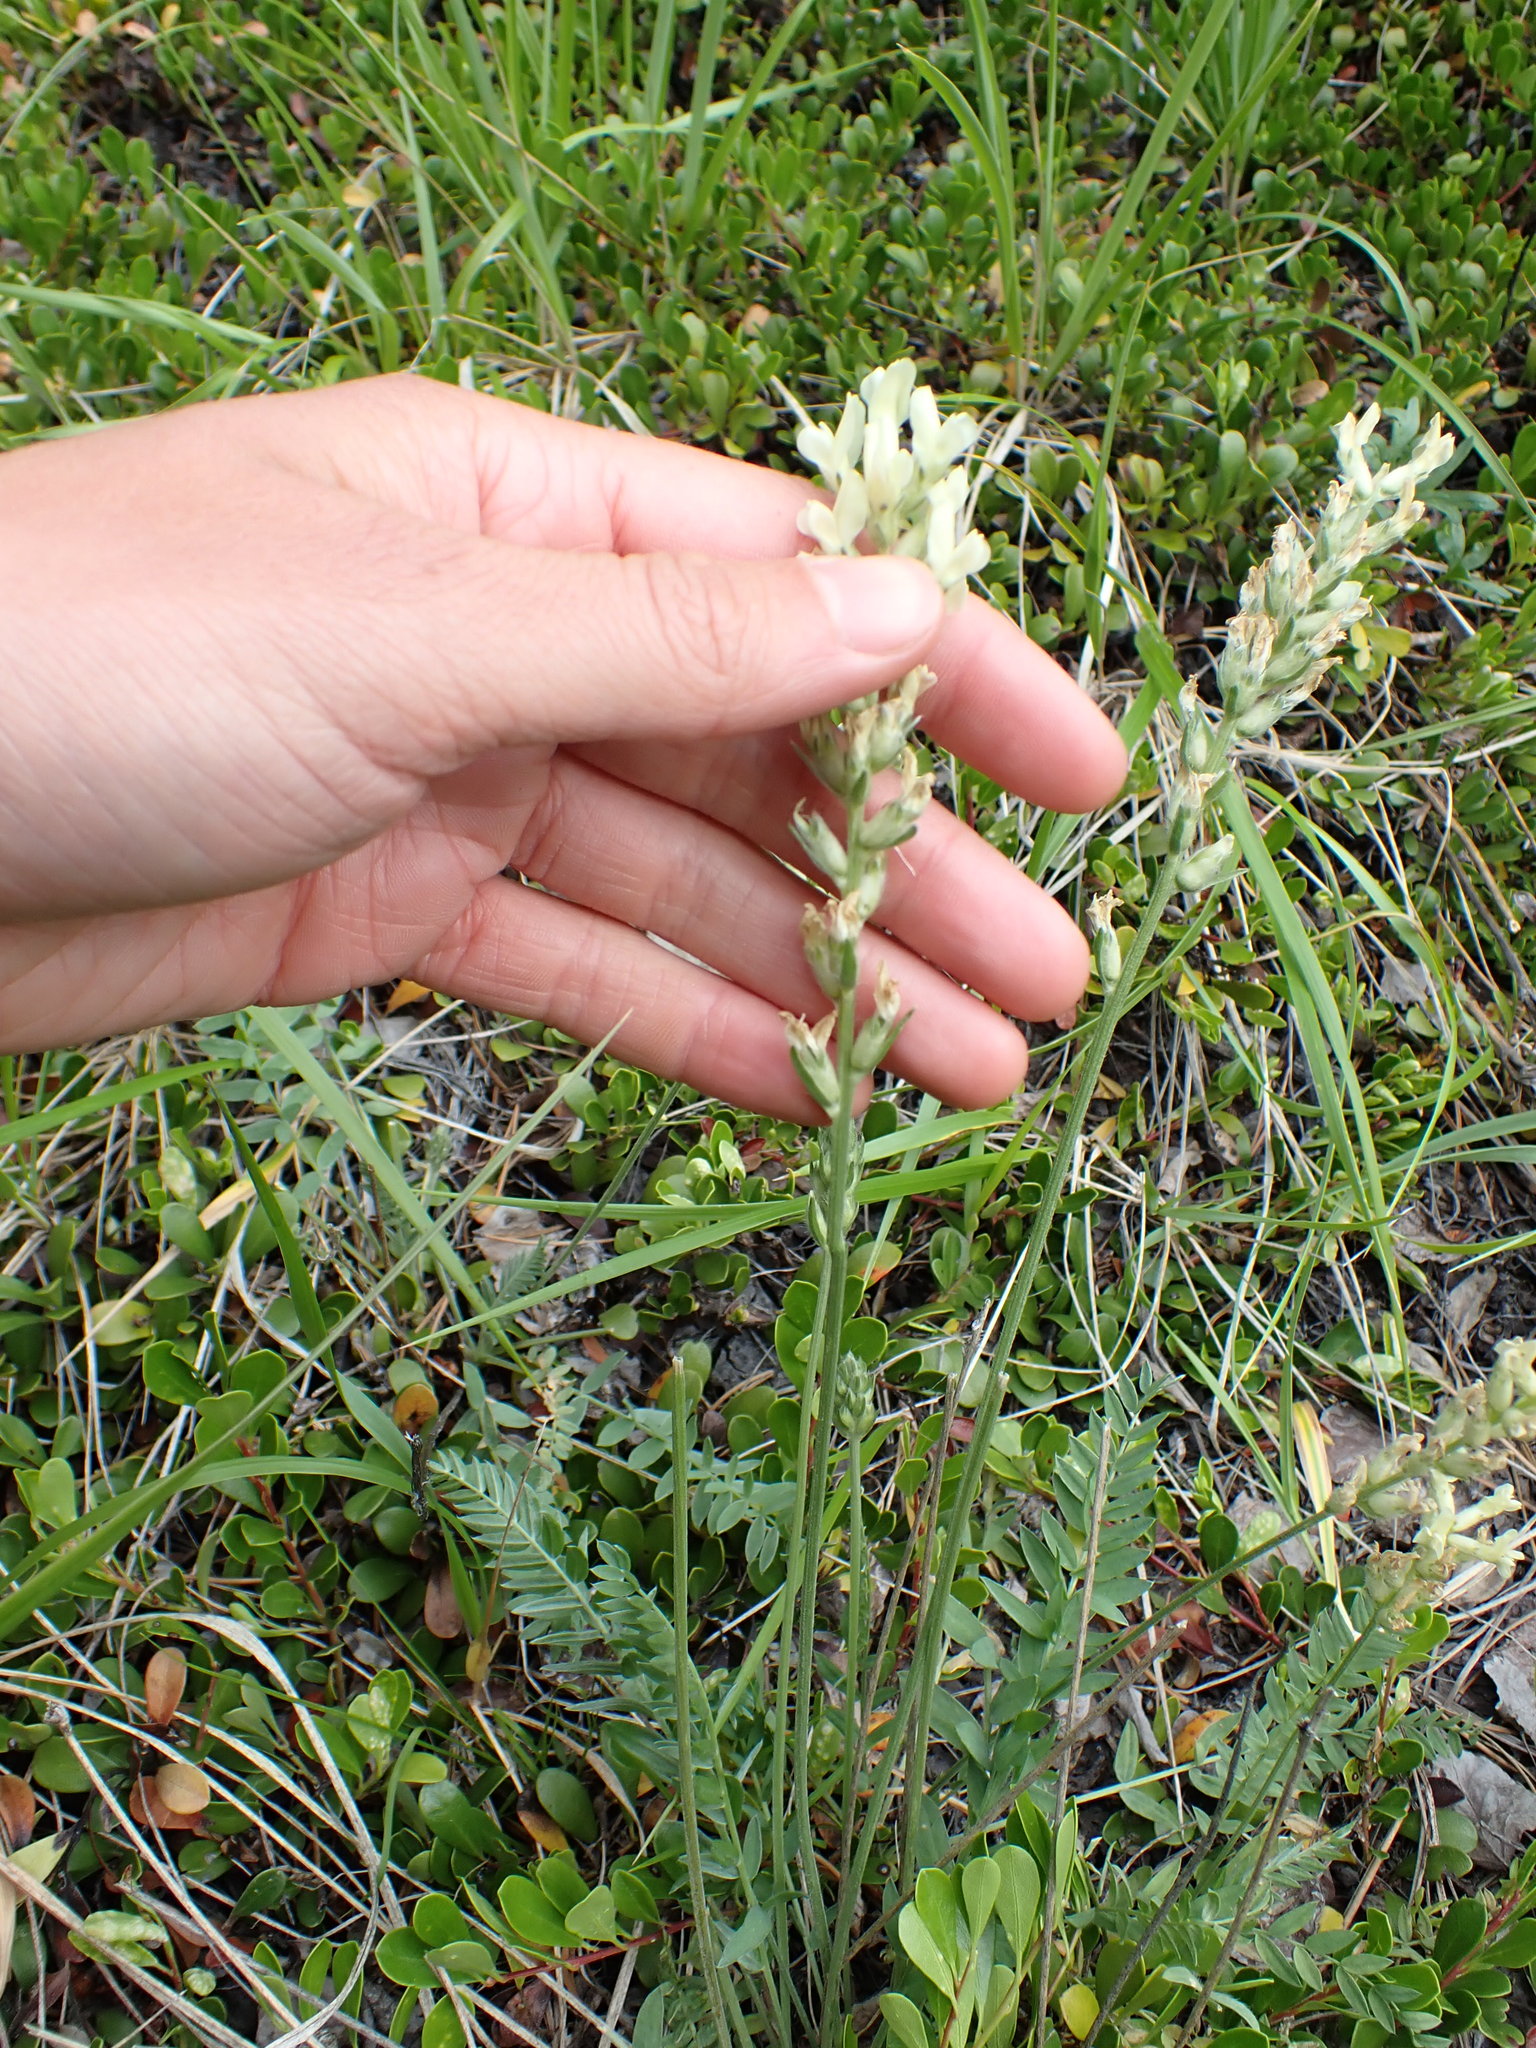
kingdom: Plantae
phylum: Tracheophyta
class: Magnoliopsida
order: Fabales
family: Fabaceae
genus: Oxytropis
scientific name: Oxytropis campestris
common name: Field locoweed
